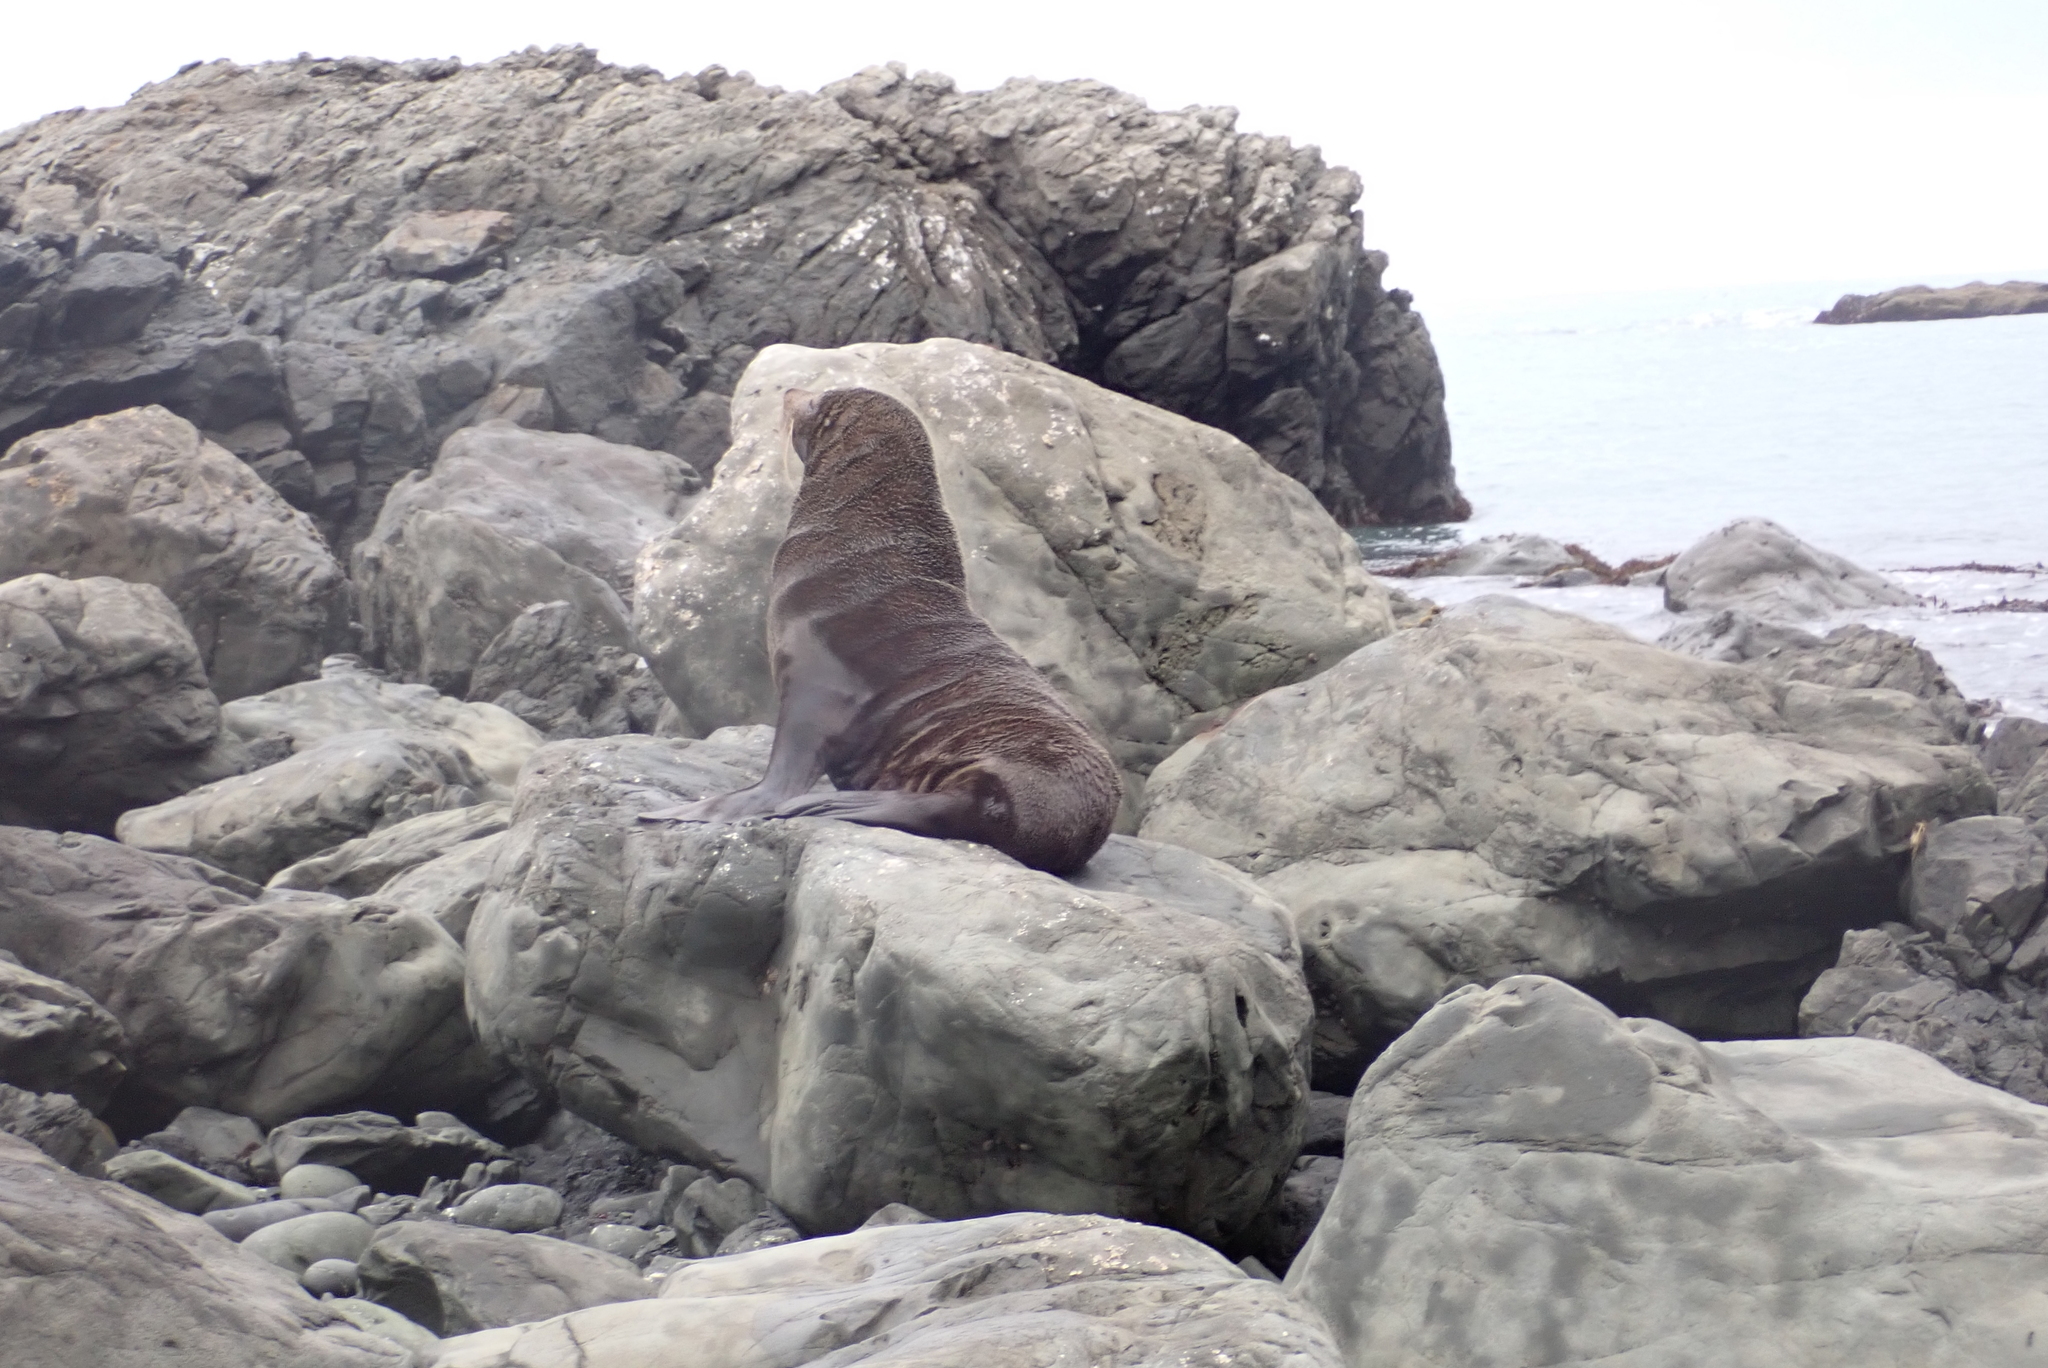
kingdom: Animalia
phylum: Chordata
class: Mammalia
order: Carnivora
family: Otariidae
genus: Arctocephalus
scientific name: Arctocephalus forsteri
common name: New zealand fur seal
